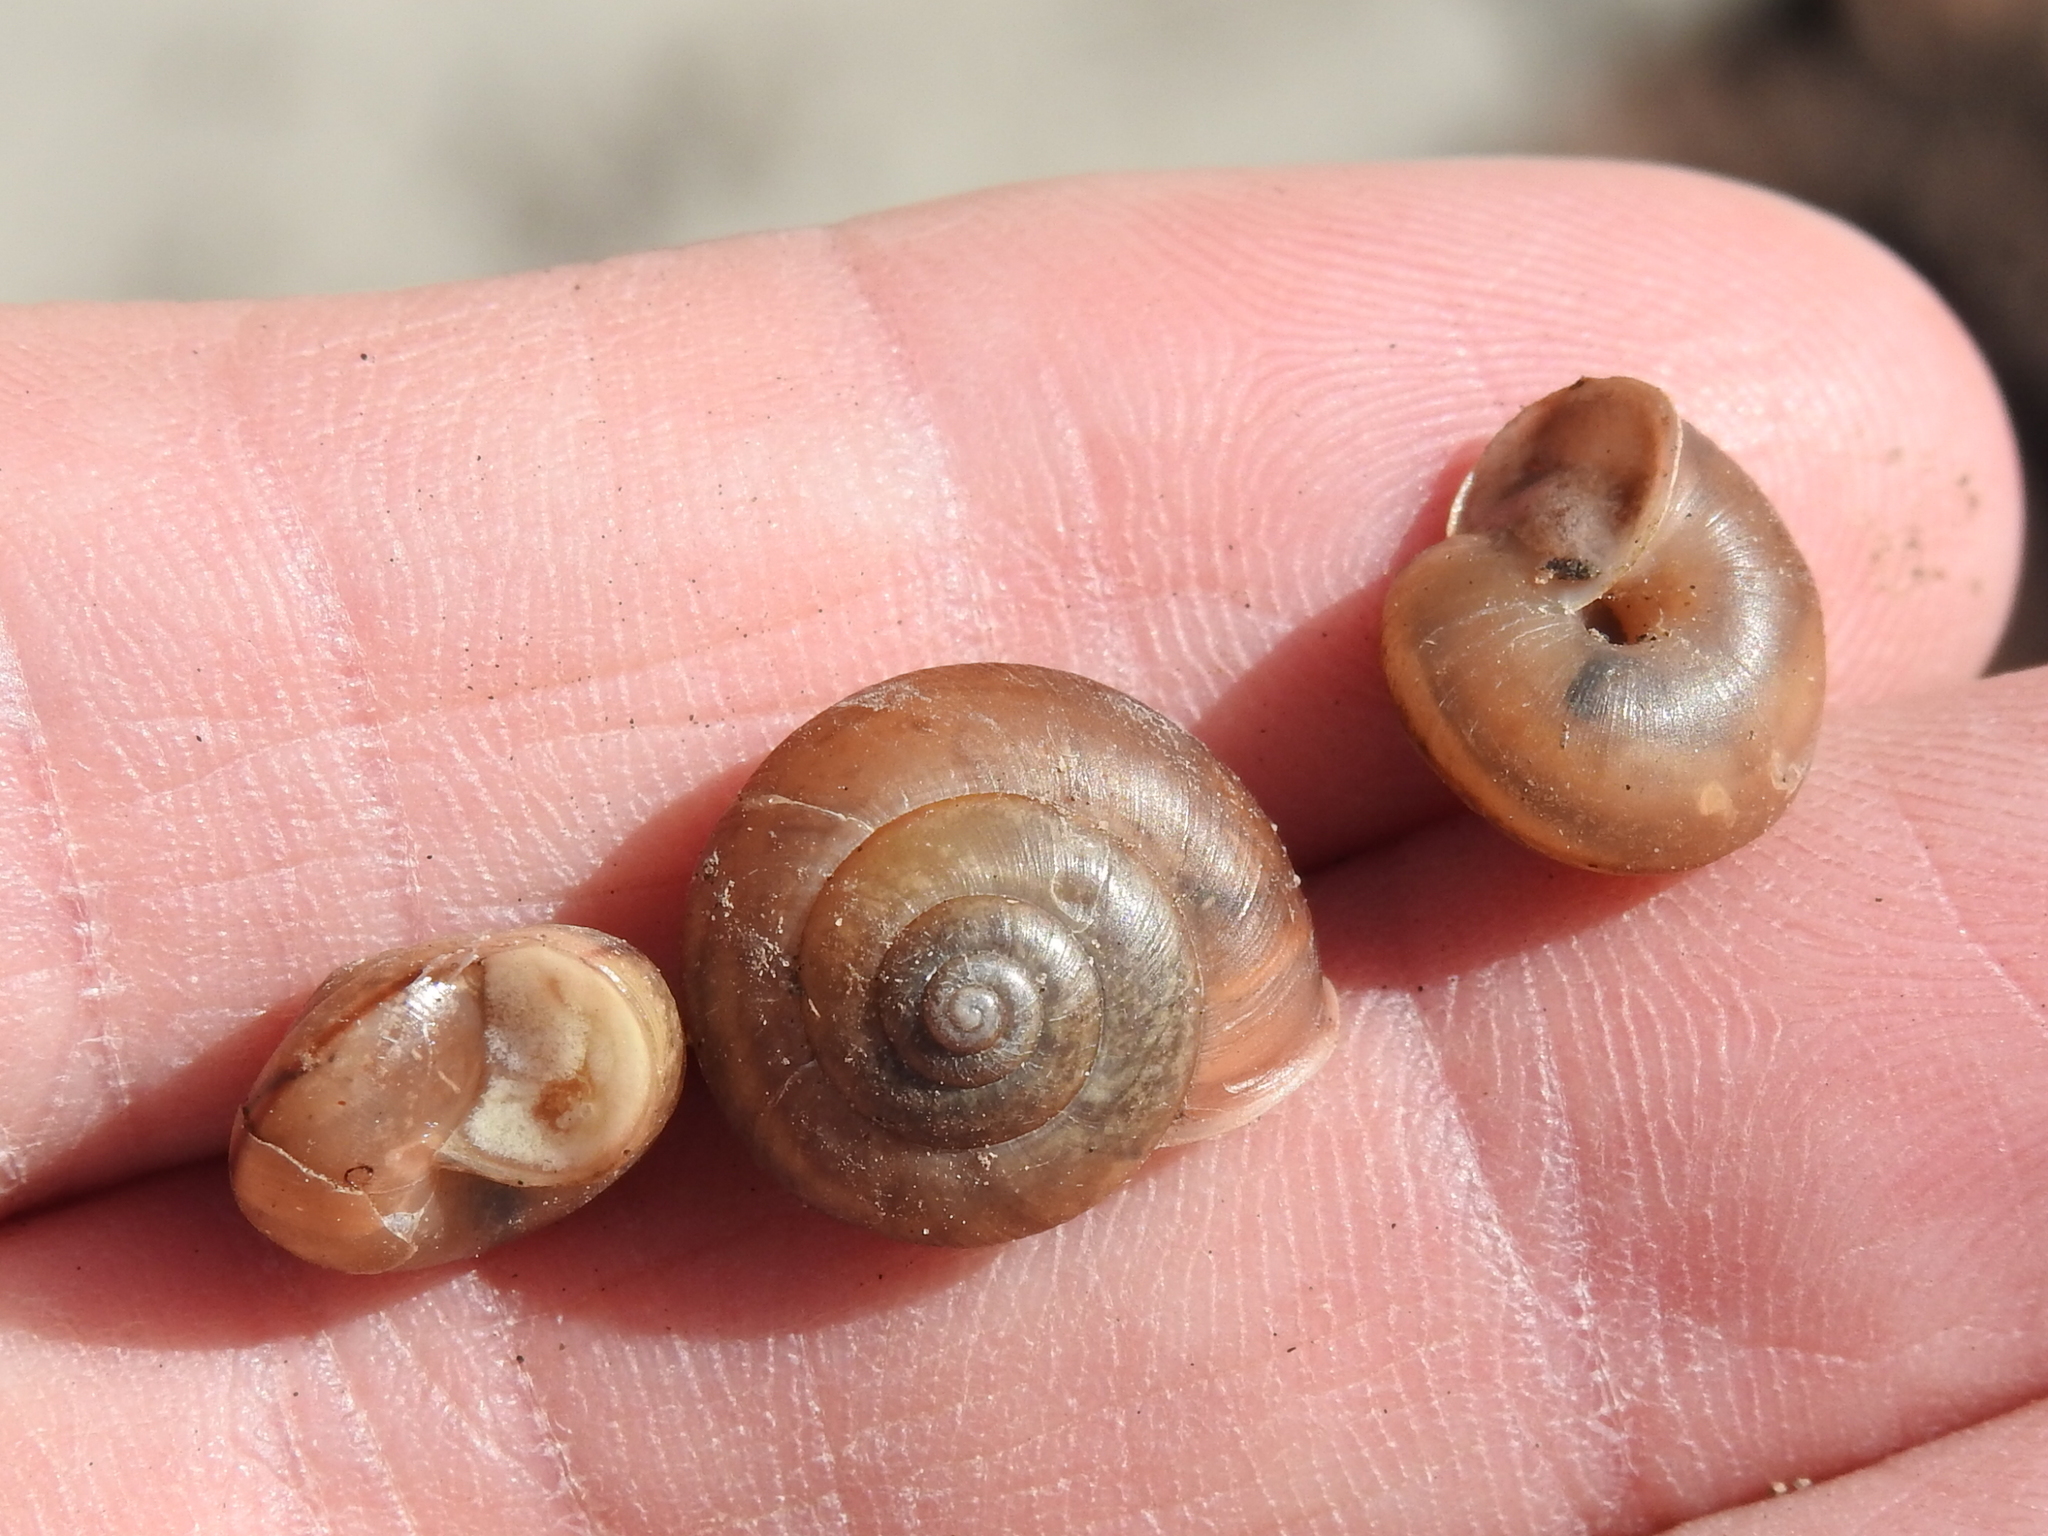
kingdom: Animalia
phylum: Mollusca
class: Gastropoda
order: Stylommatophora
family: Camaenidae
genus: Bradybaena
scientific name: Bradybaena similaris
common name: Asian trampsnail
